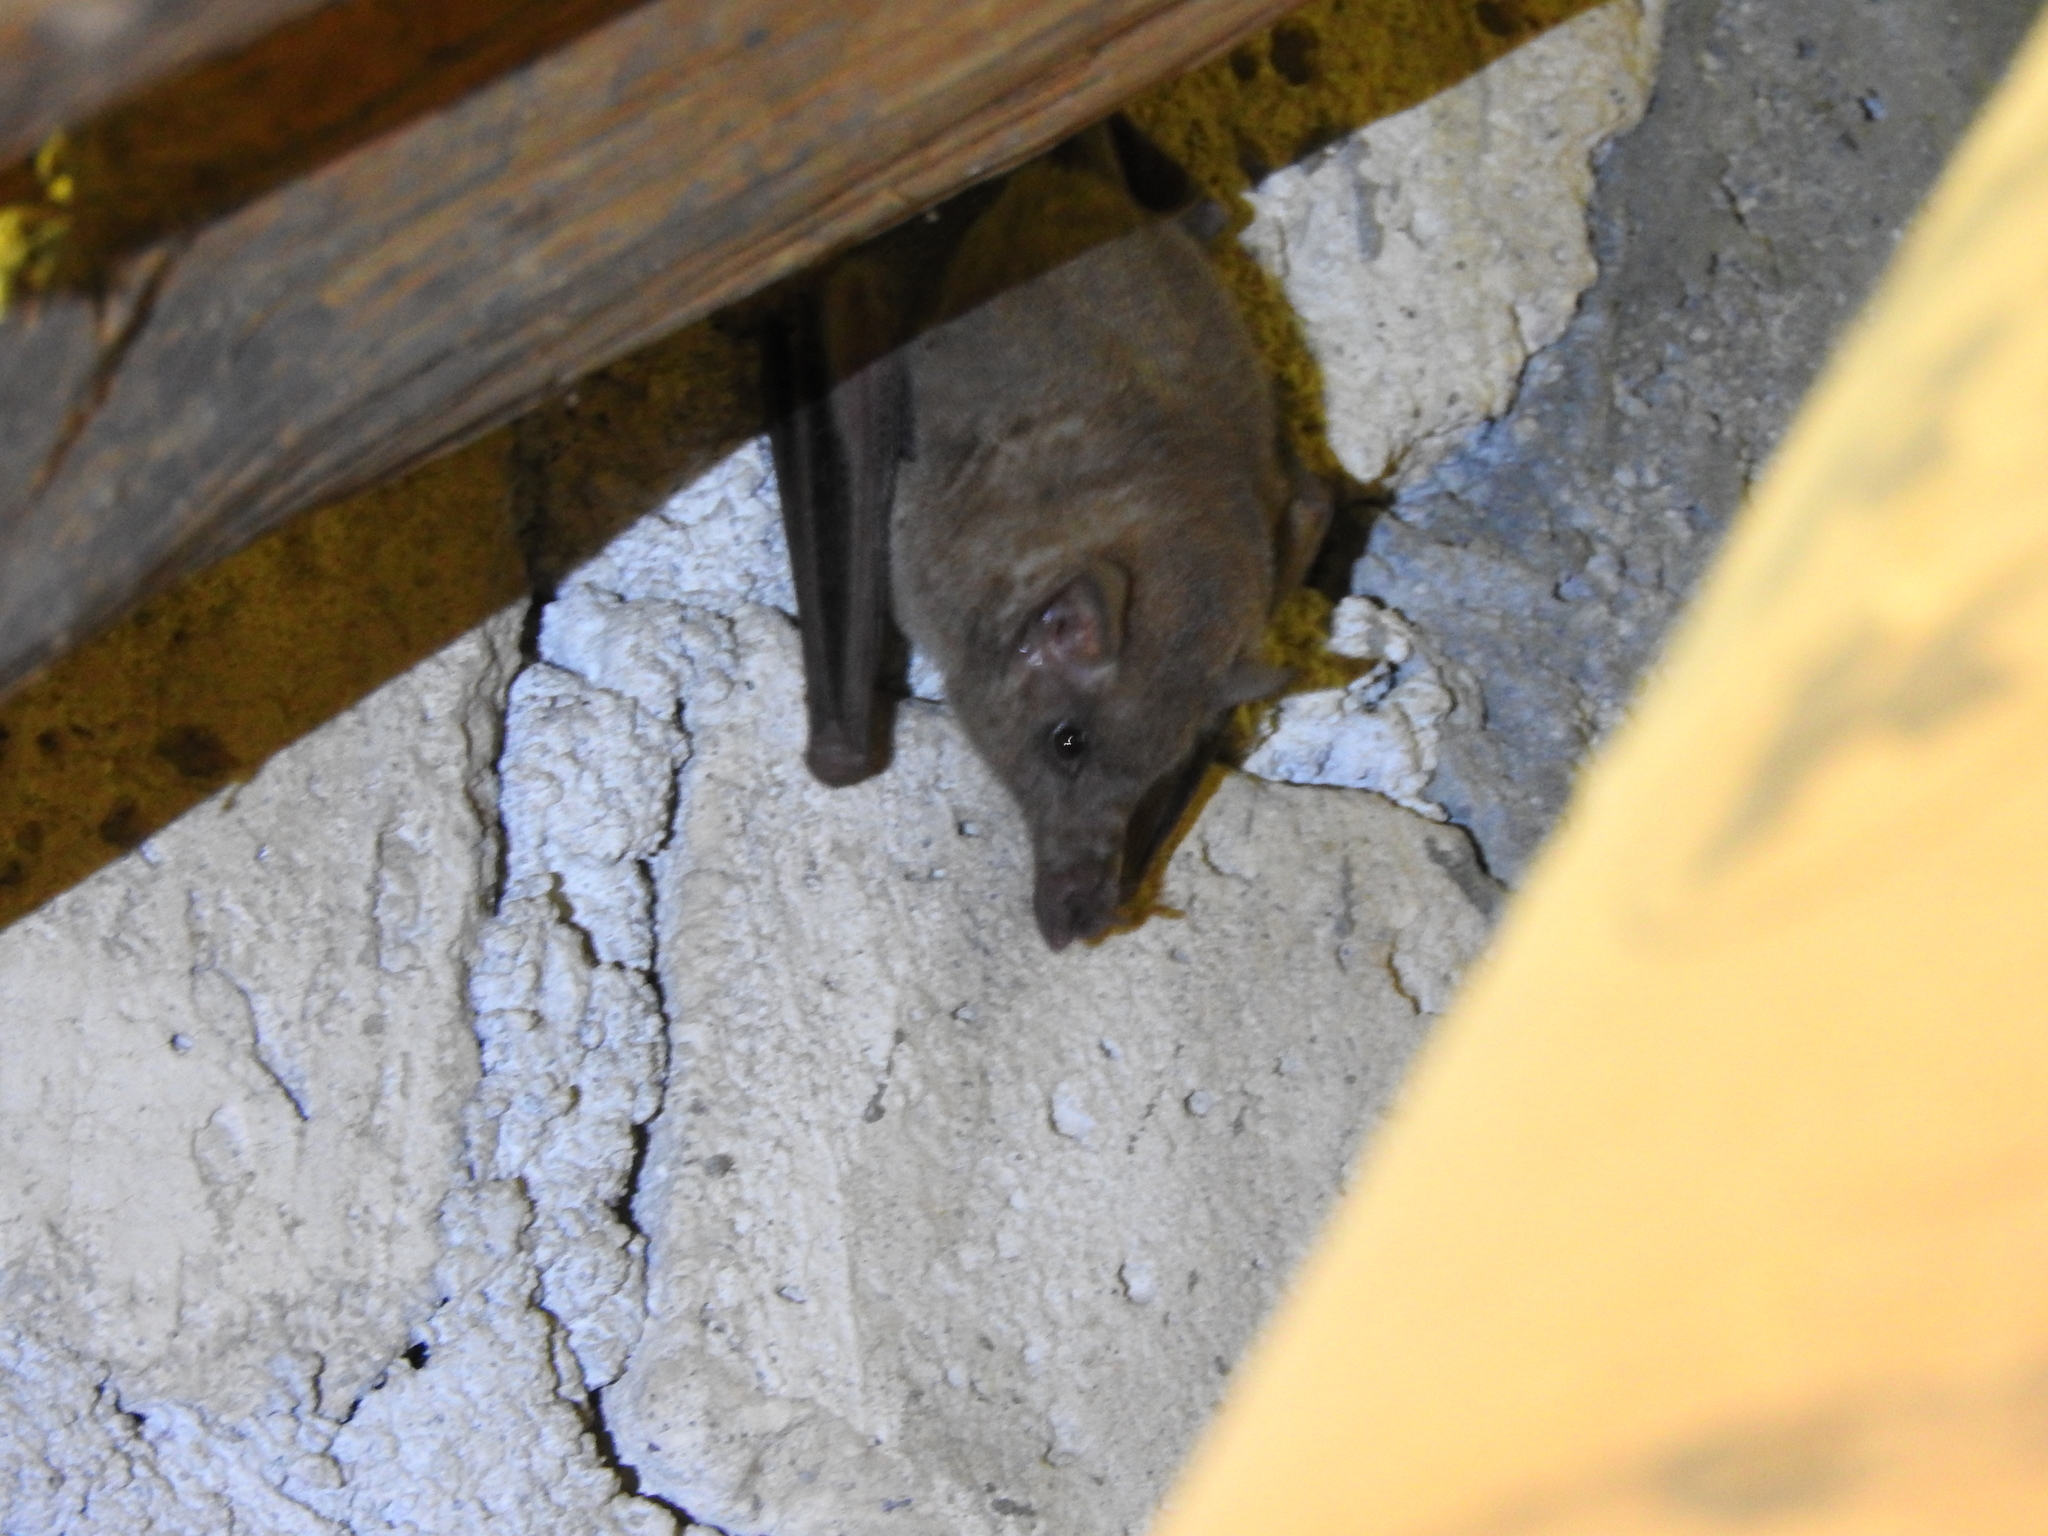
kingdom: Animalia
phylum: Chordata
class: Mammalia
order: Chiroptera
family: Phyllostomidae
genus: Choeronycteris
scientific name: Choeronycteris mexicana
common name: Mexican long-tongued bat
